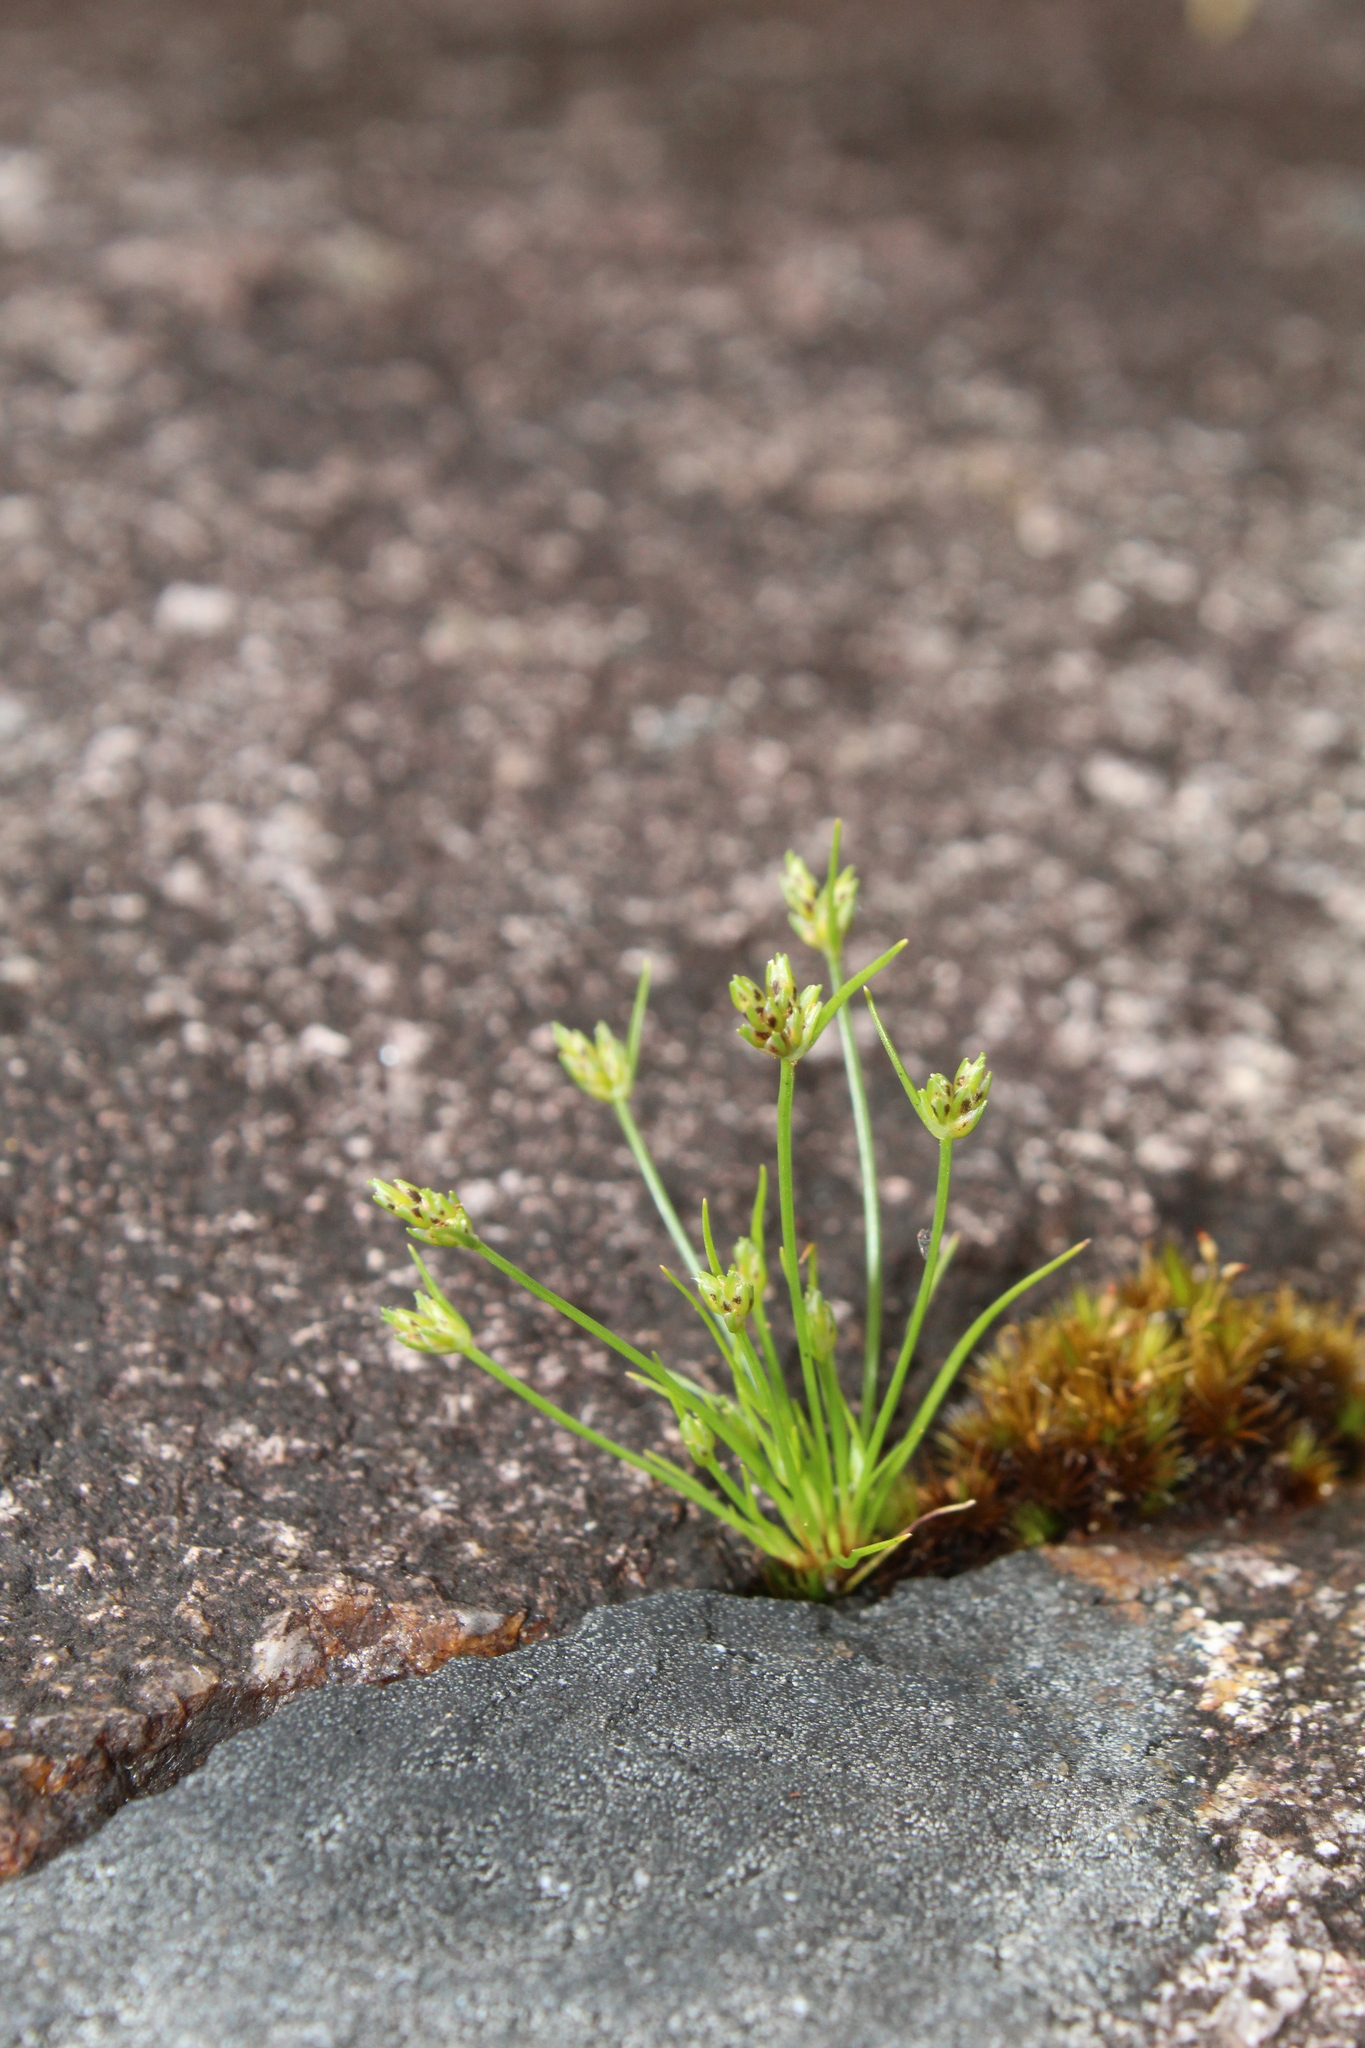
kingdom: Plantae
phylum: Tracheophyta
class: Liliopsida
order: Poales
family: Cyperaceae
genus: Isolepis
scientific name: Isolepis marginata
